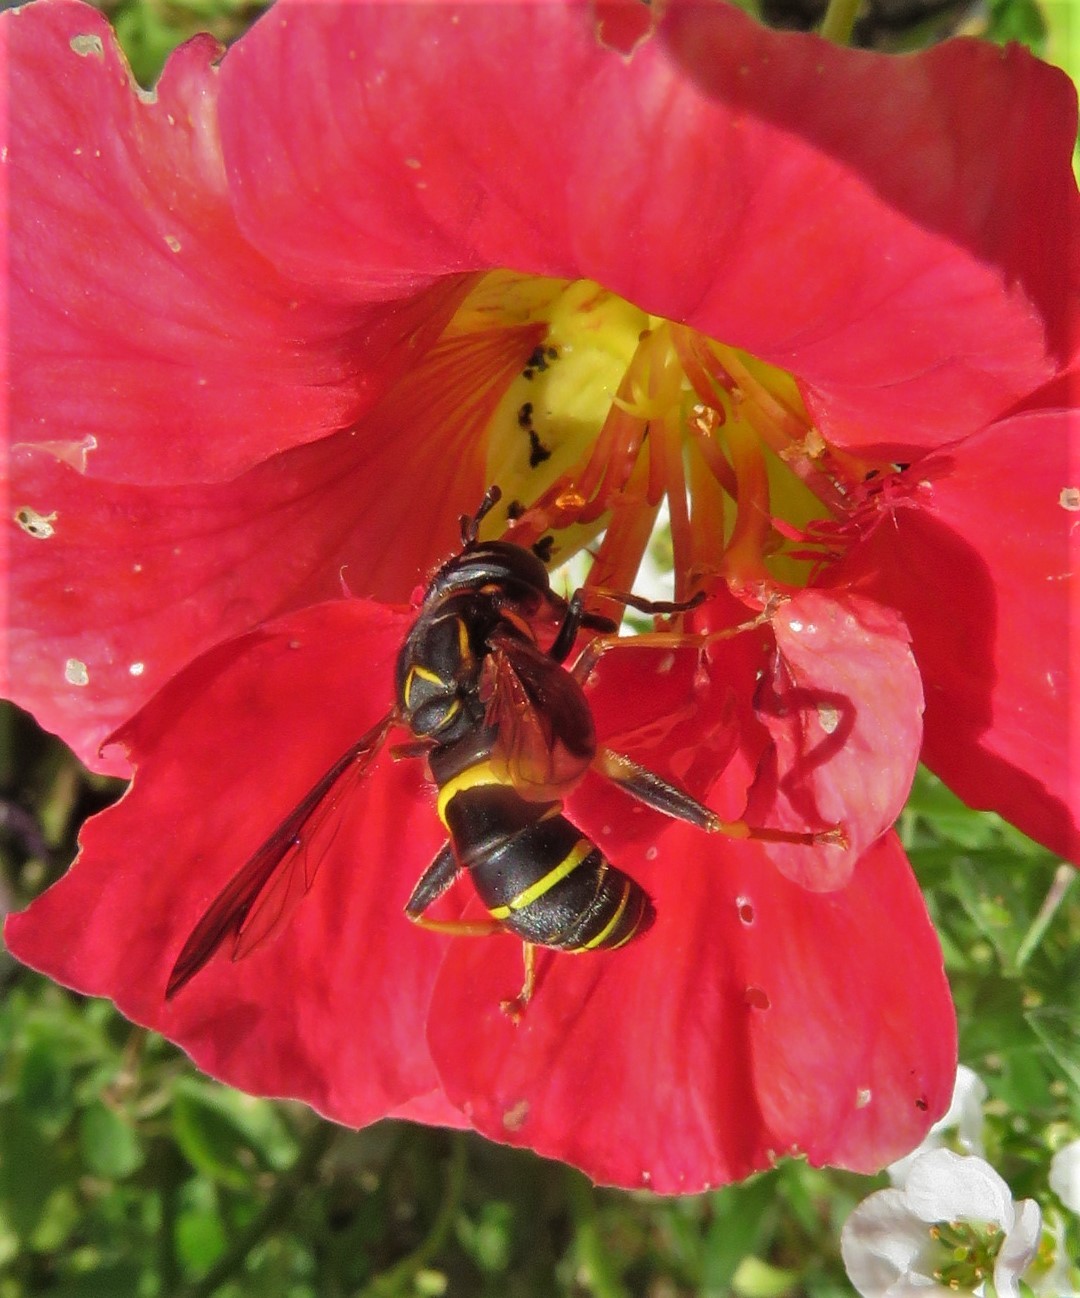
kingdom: Animalia
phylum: Arthropoda
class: Insecta
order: Diptera
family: Syrphidae
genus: Spilomyia
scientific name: Spilomyia sayi
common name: Four-lined hornet fly
